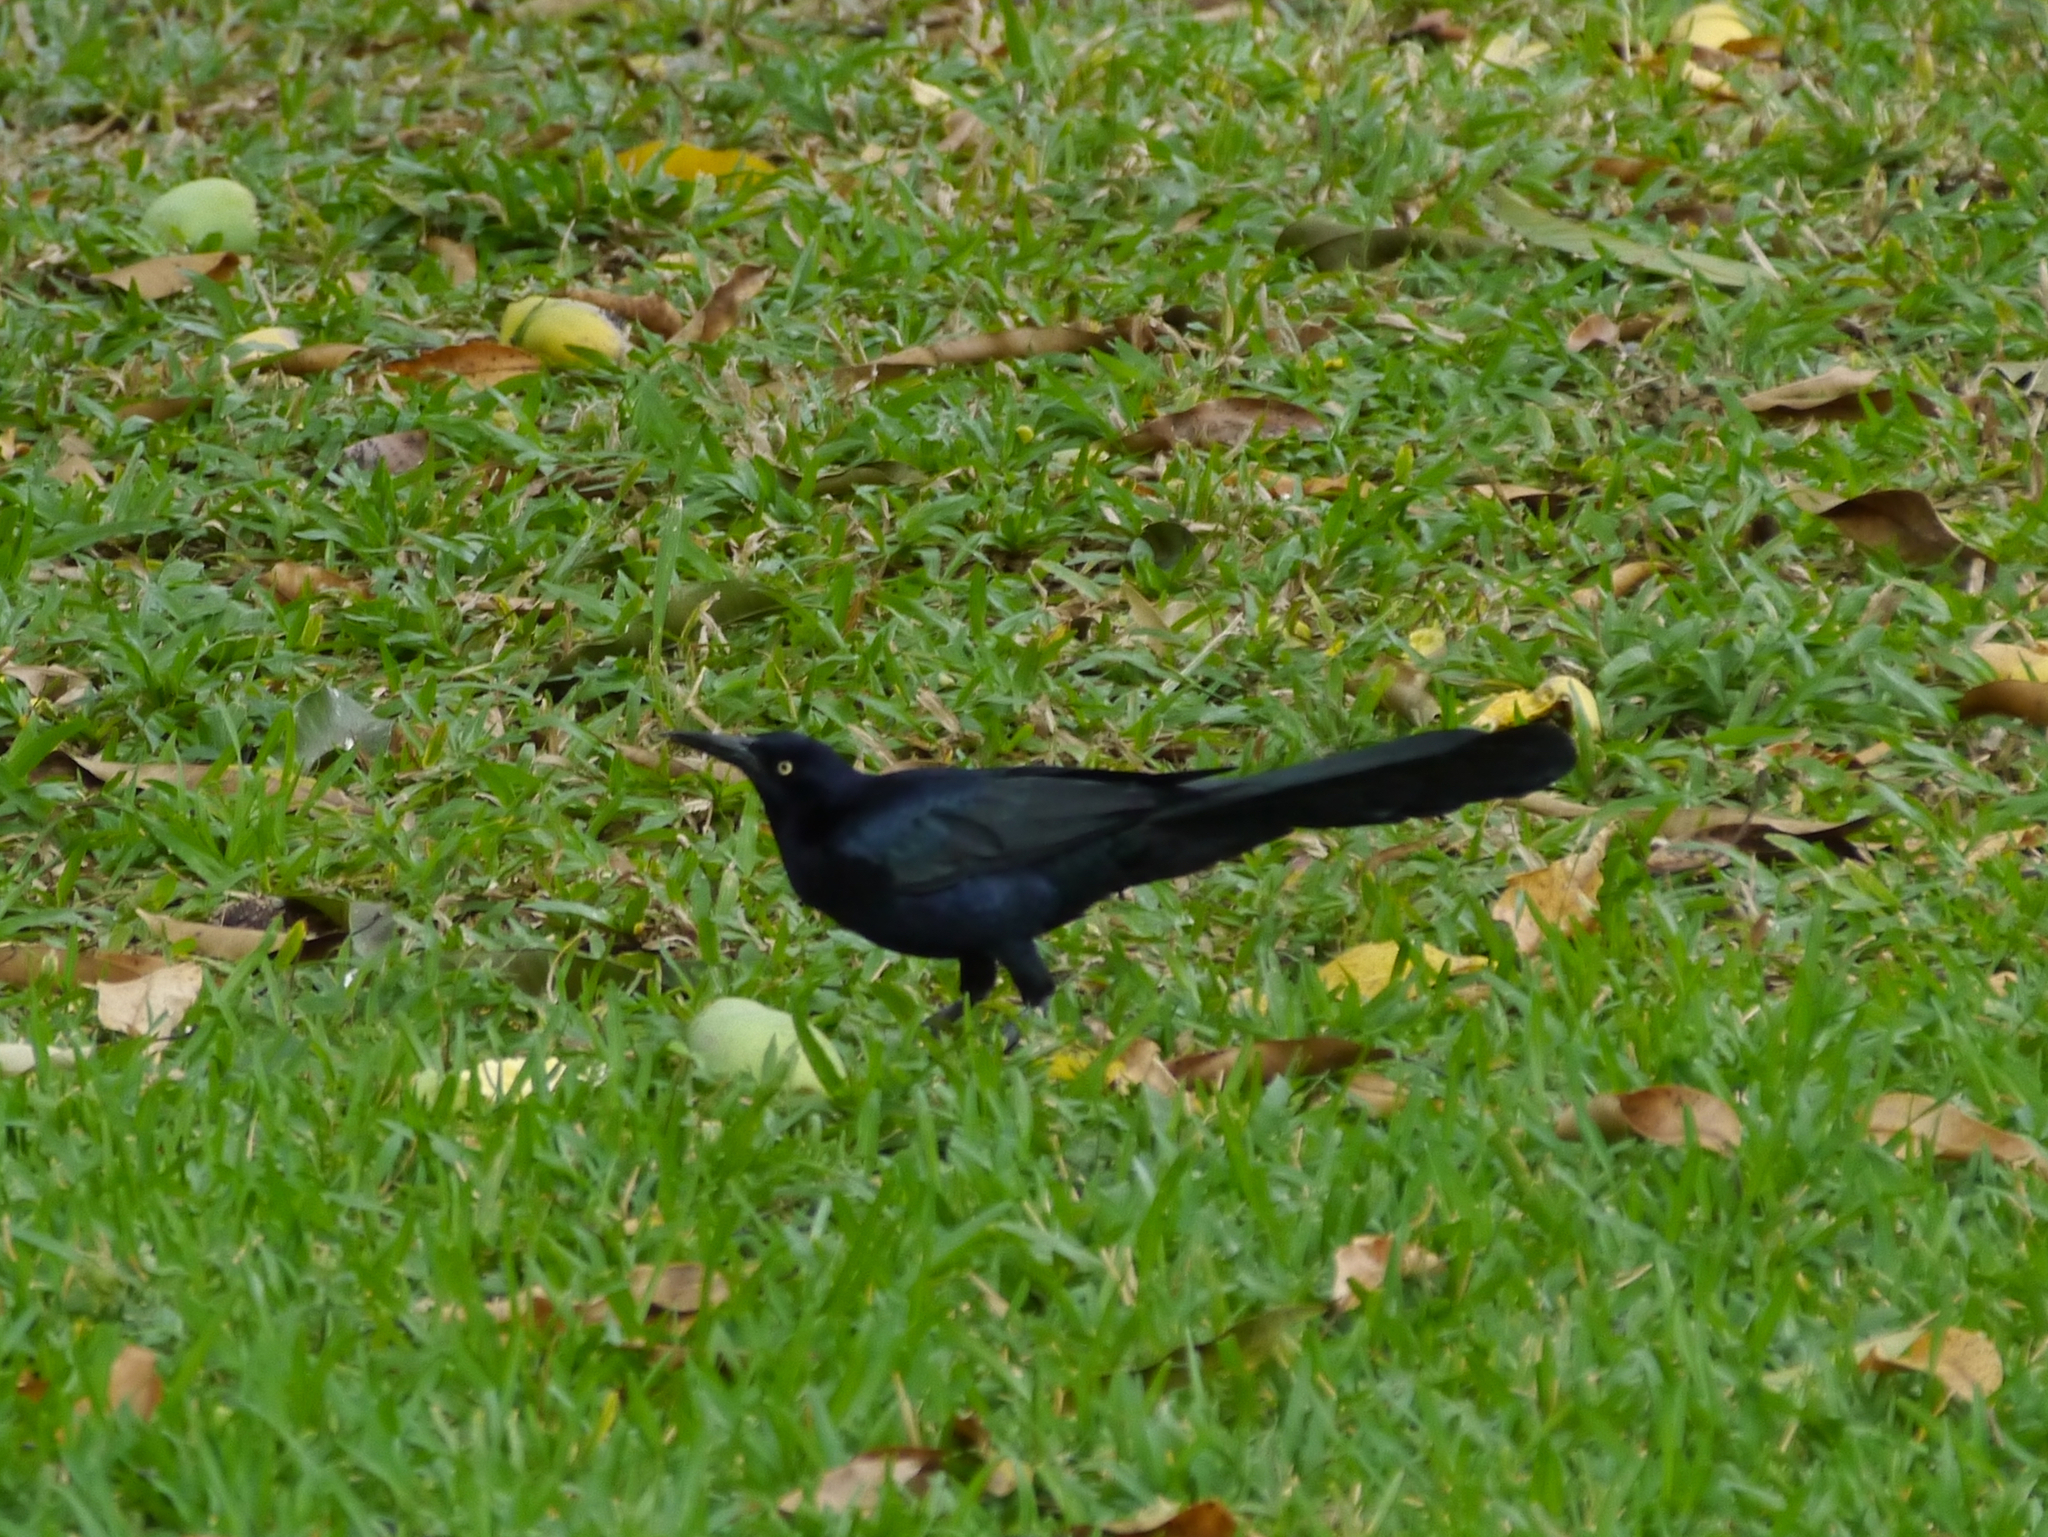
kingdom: Animalia
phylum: Chordata
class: Aves
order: Passeriformes
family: Icteridae
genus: Quiscalus
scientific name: Quiscalus mexicanus
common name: Great-tailed grackle
